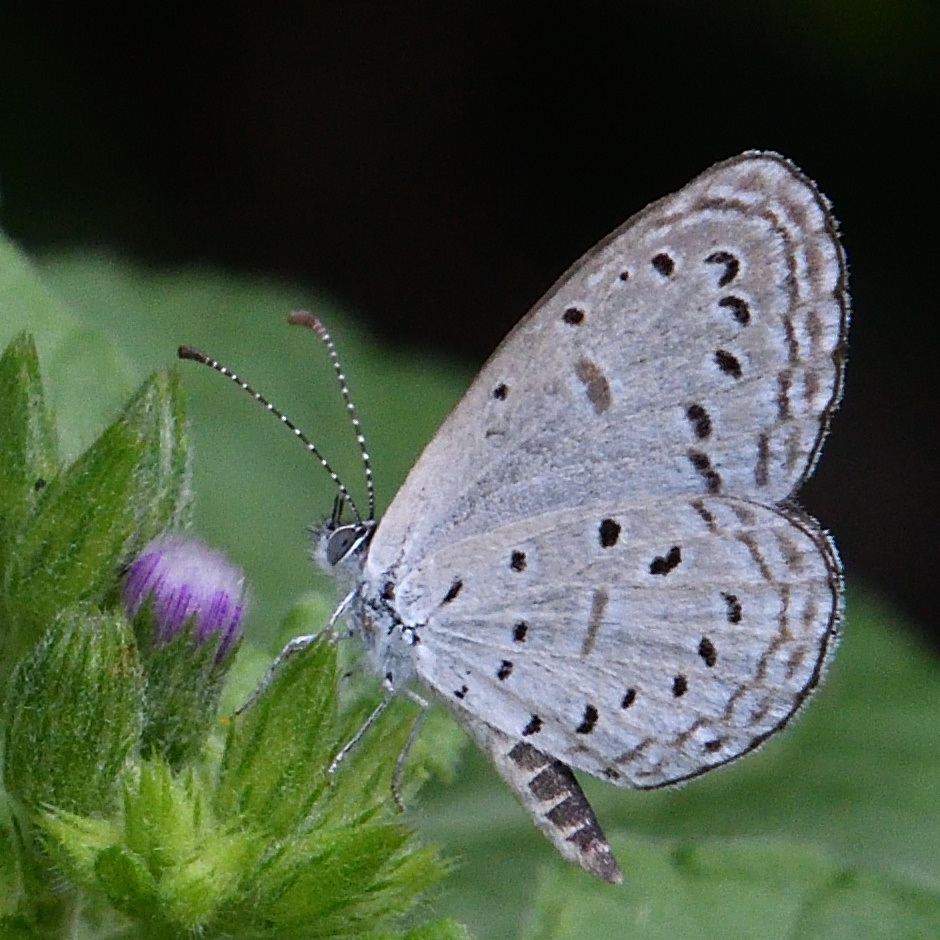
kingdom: Animalia
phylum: Arthropoda
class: Insecta
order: Lepidoptera
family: Lycaenidae
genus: Zizula
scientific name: Zizula hylax
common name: Gaika blue
